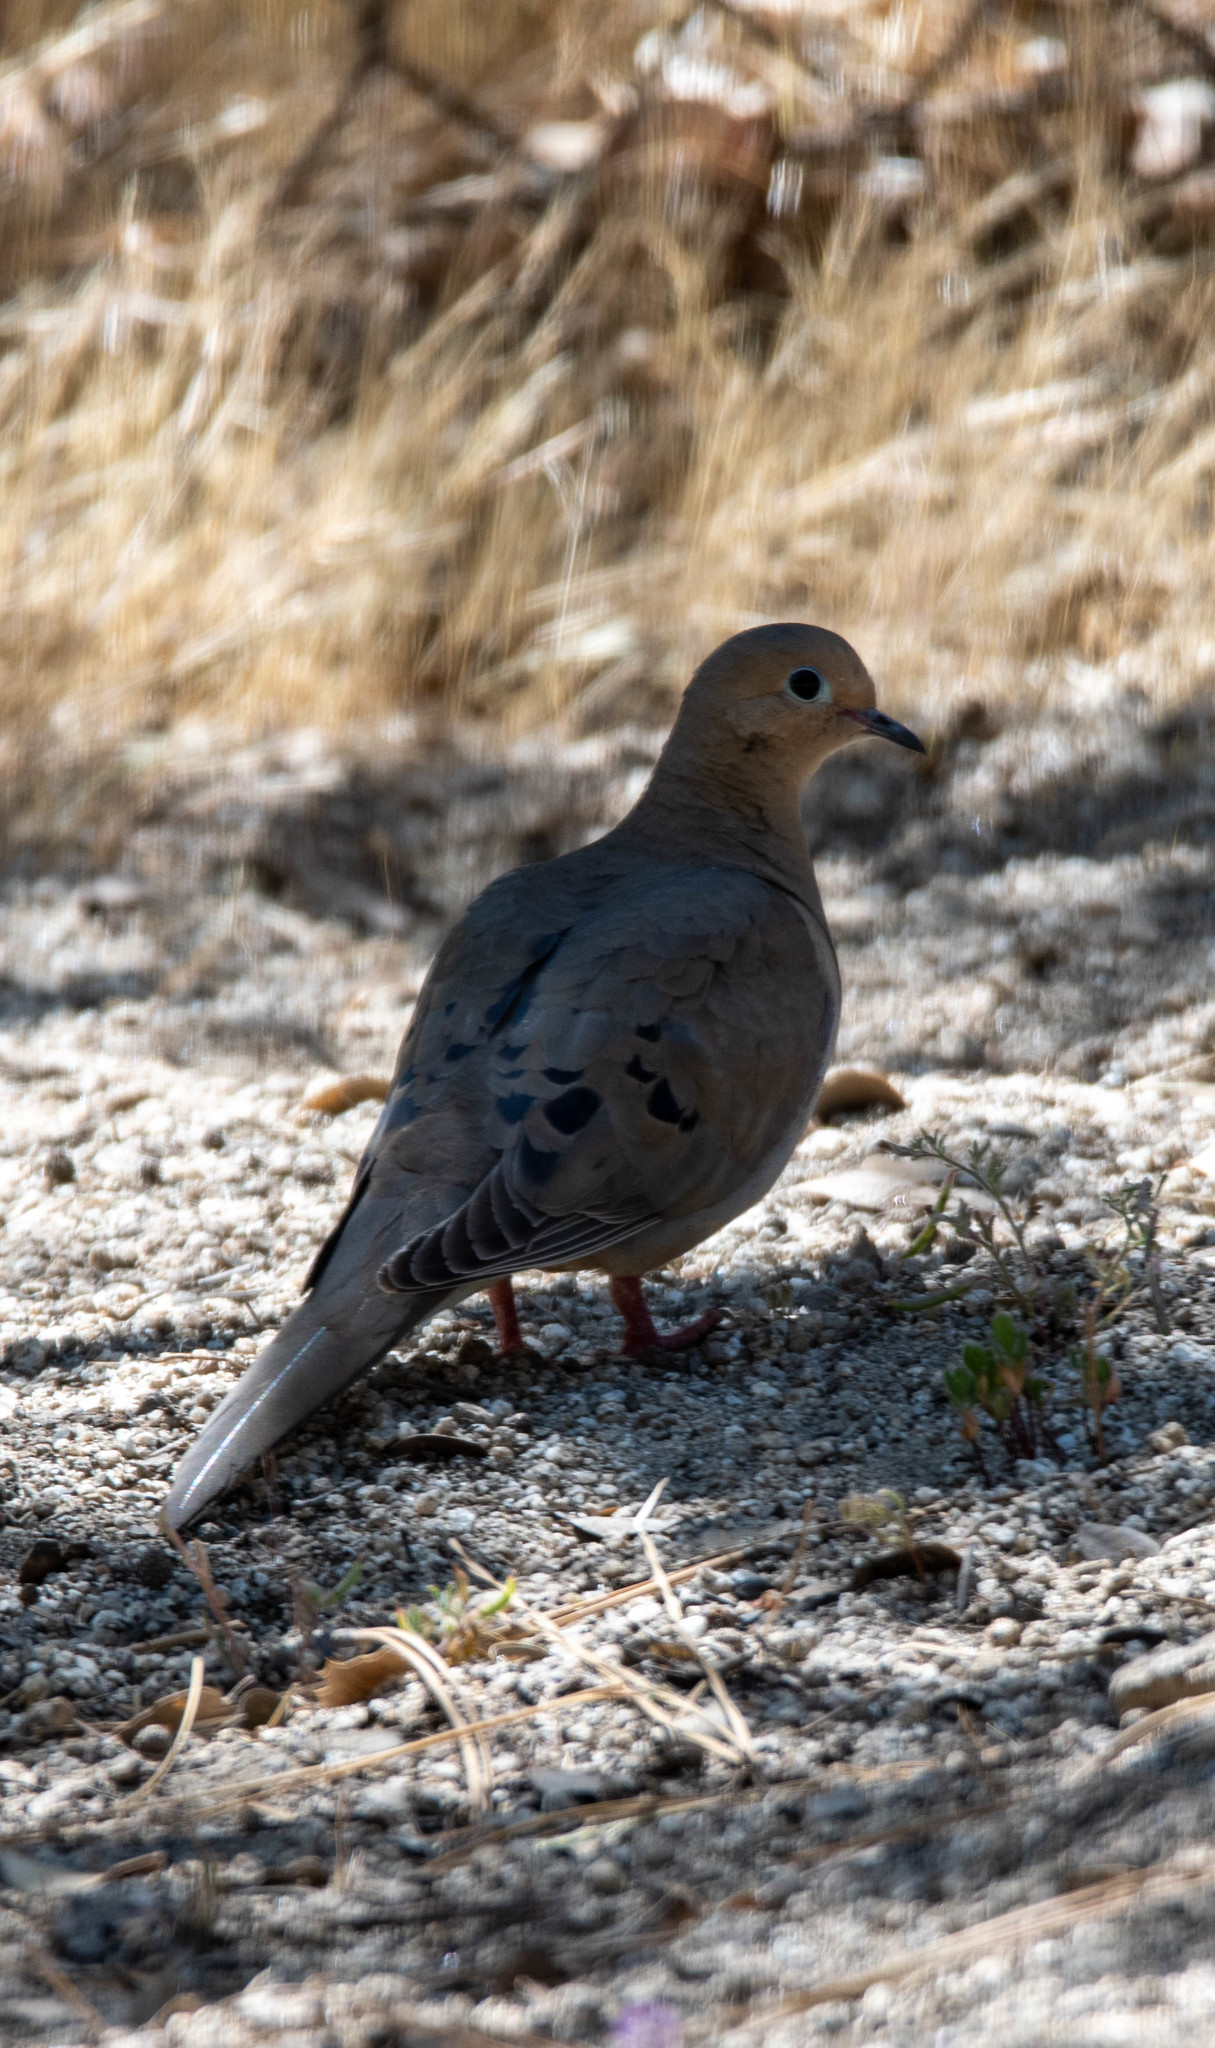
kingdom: Animalia
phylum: Chordata
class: Aves
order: Columbiformes
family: Columbidae
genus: Zenaida
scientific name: Zenaida macroura
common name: Mourning dove
